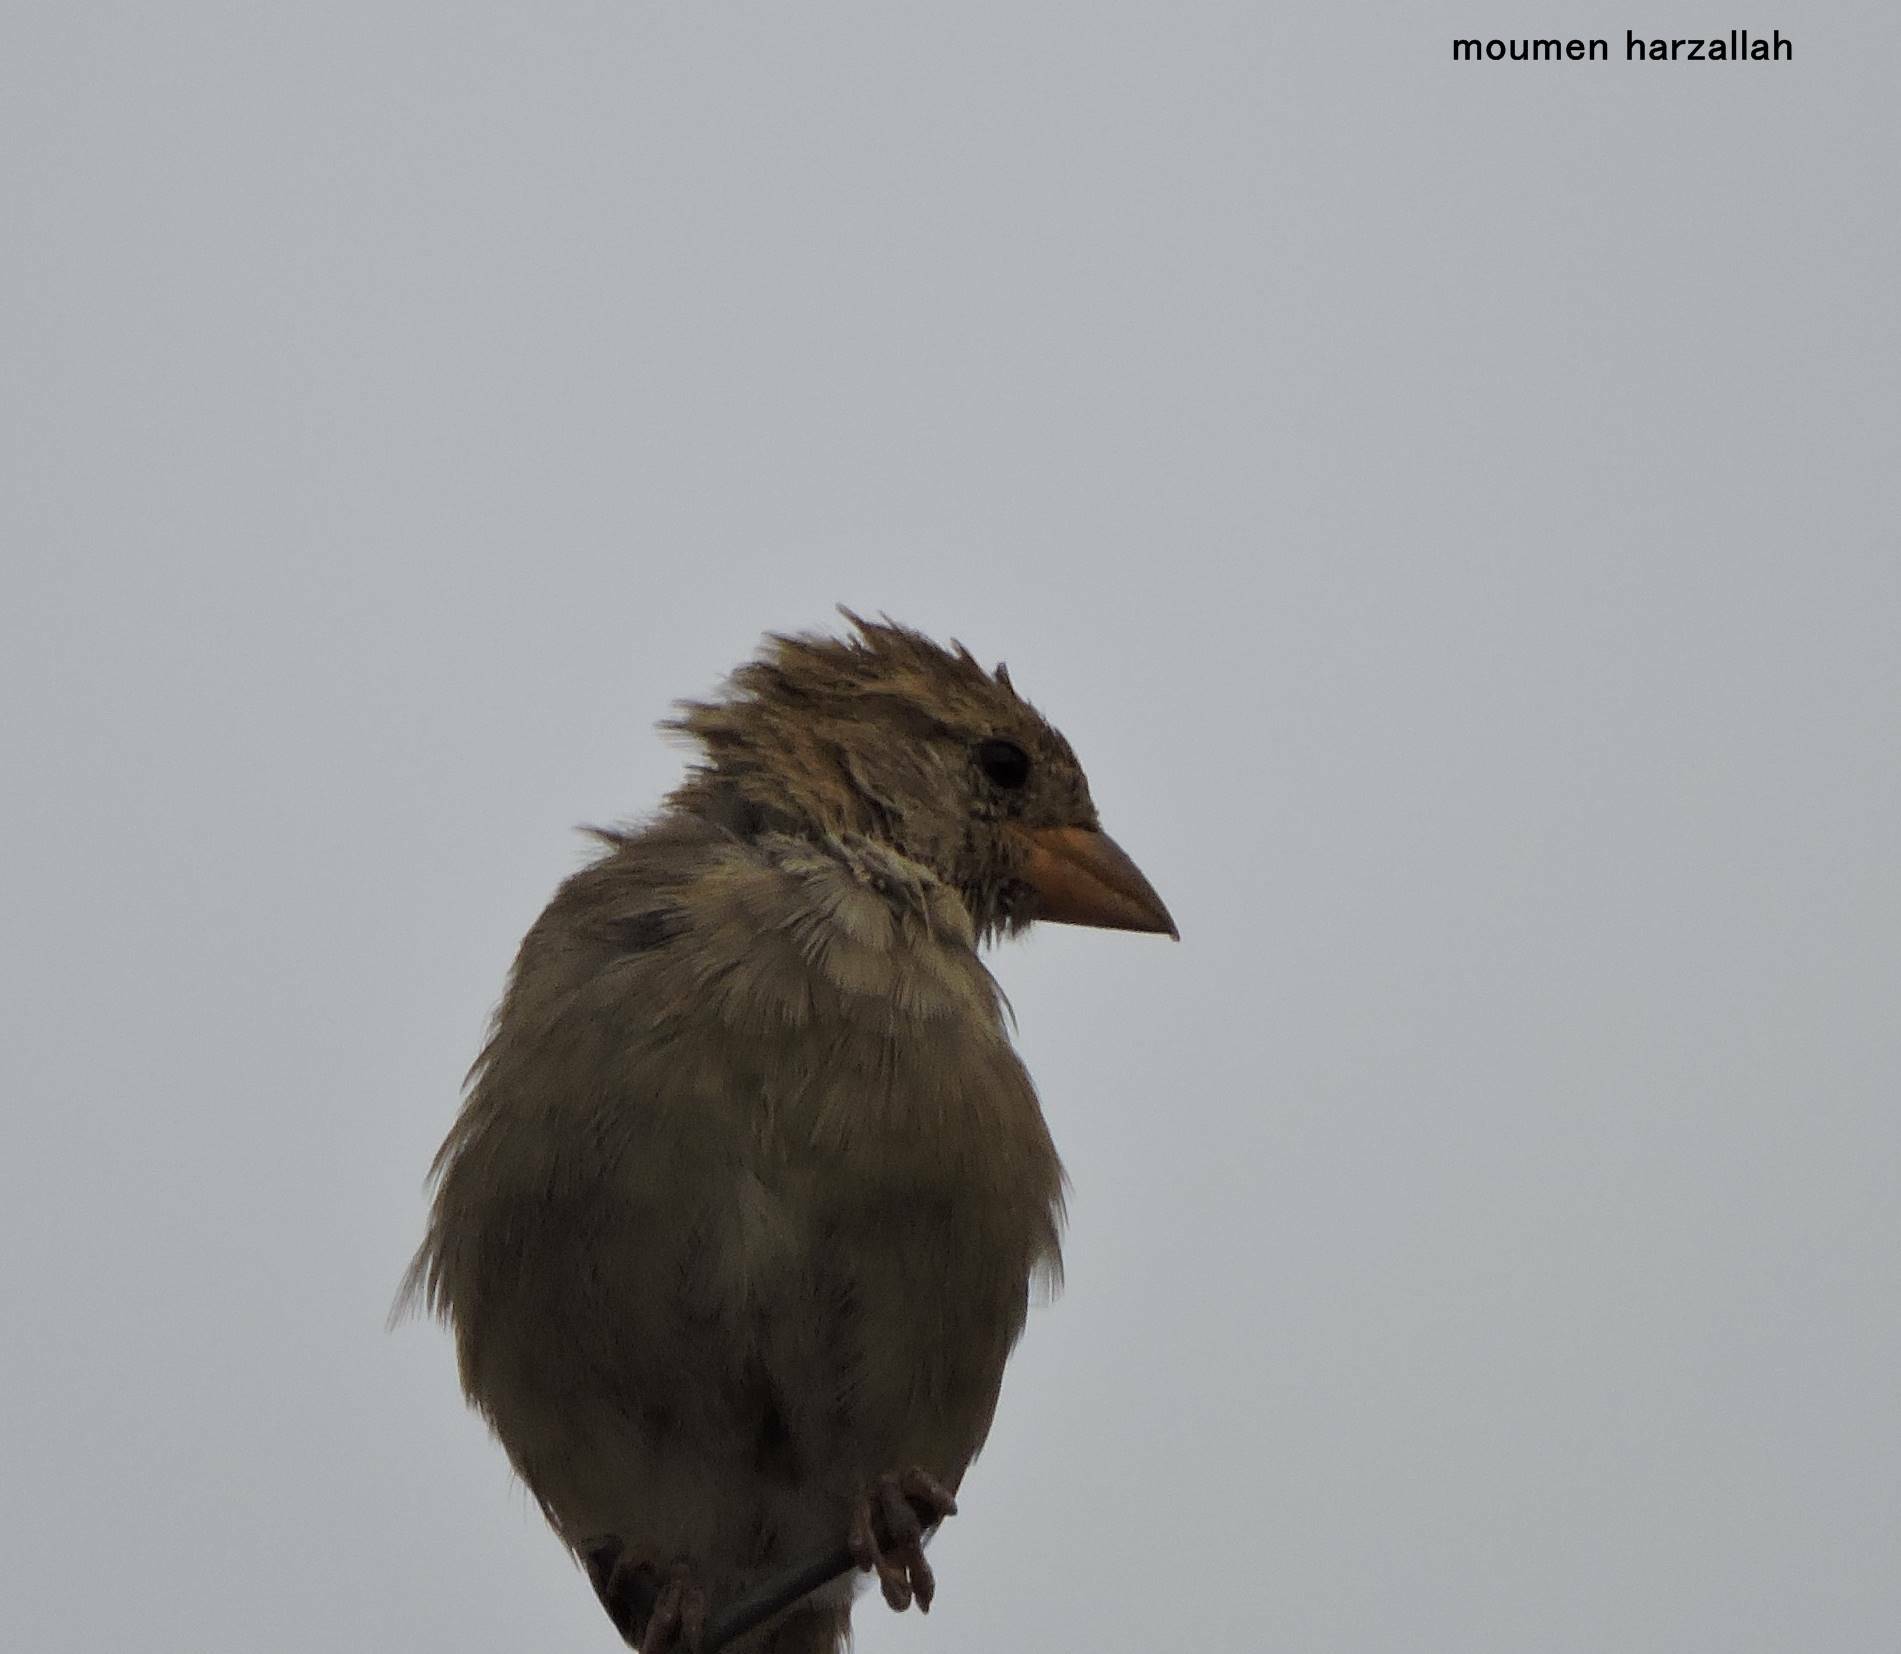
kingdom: Animalia
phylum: Chordata
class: Aves
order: Passeriformes
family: Passeridae
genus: Passer
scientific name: Passer hispaniolensis
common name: Spanish sparrow
